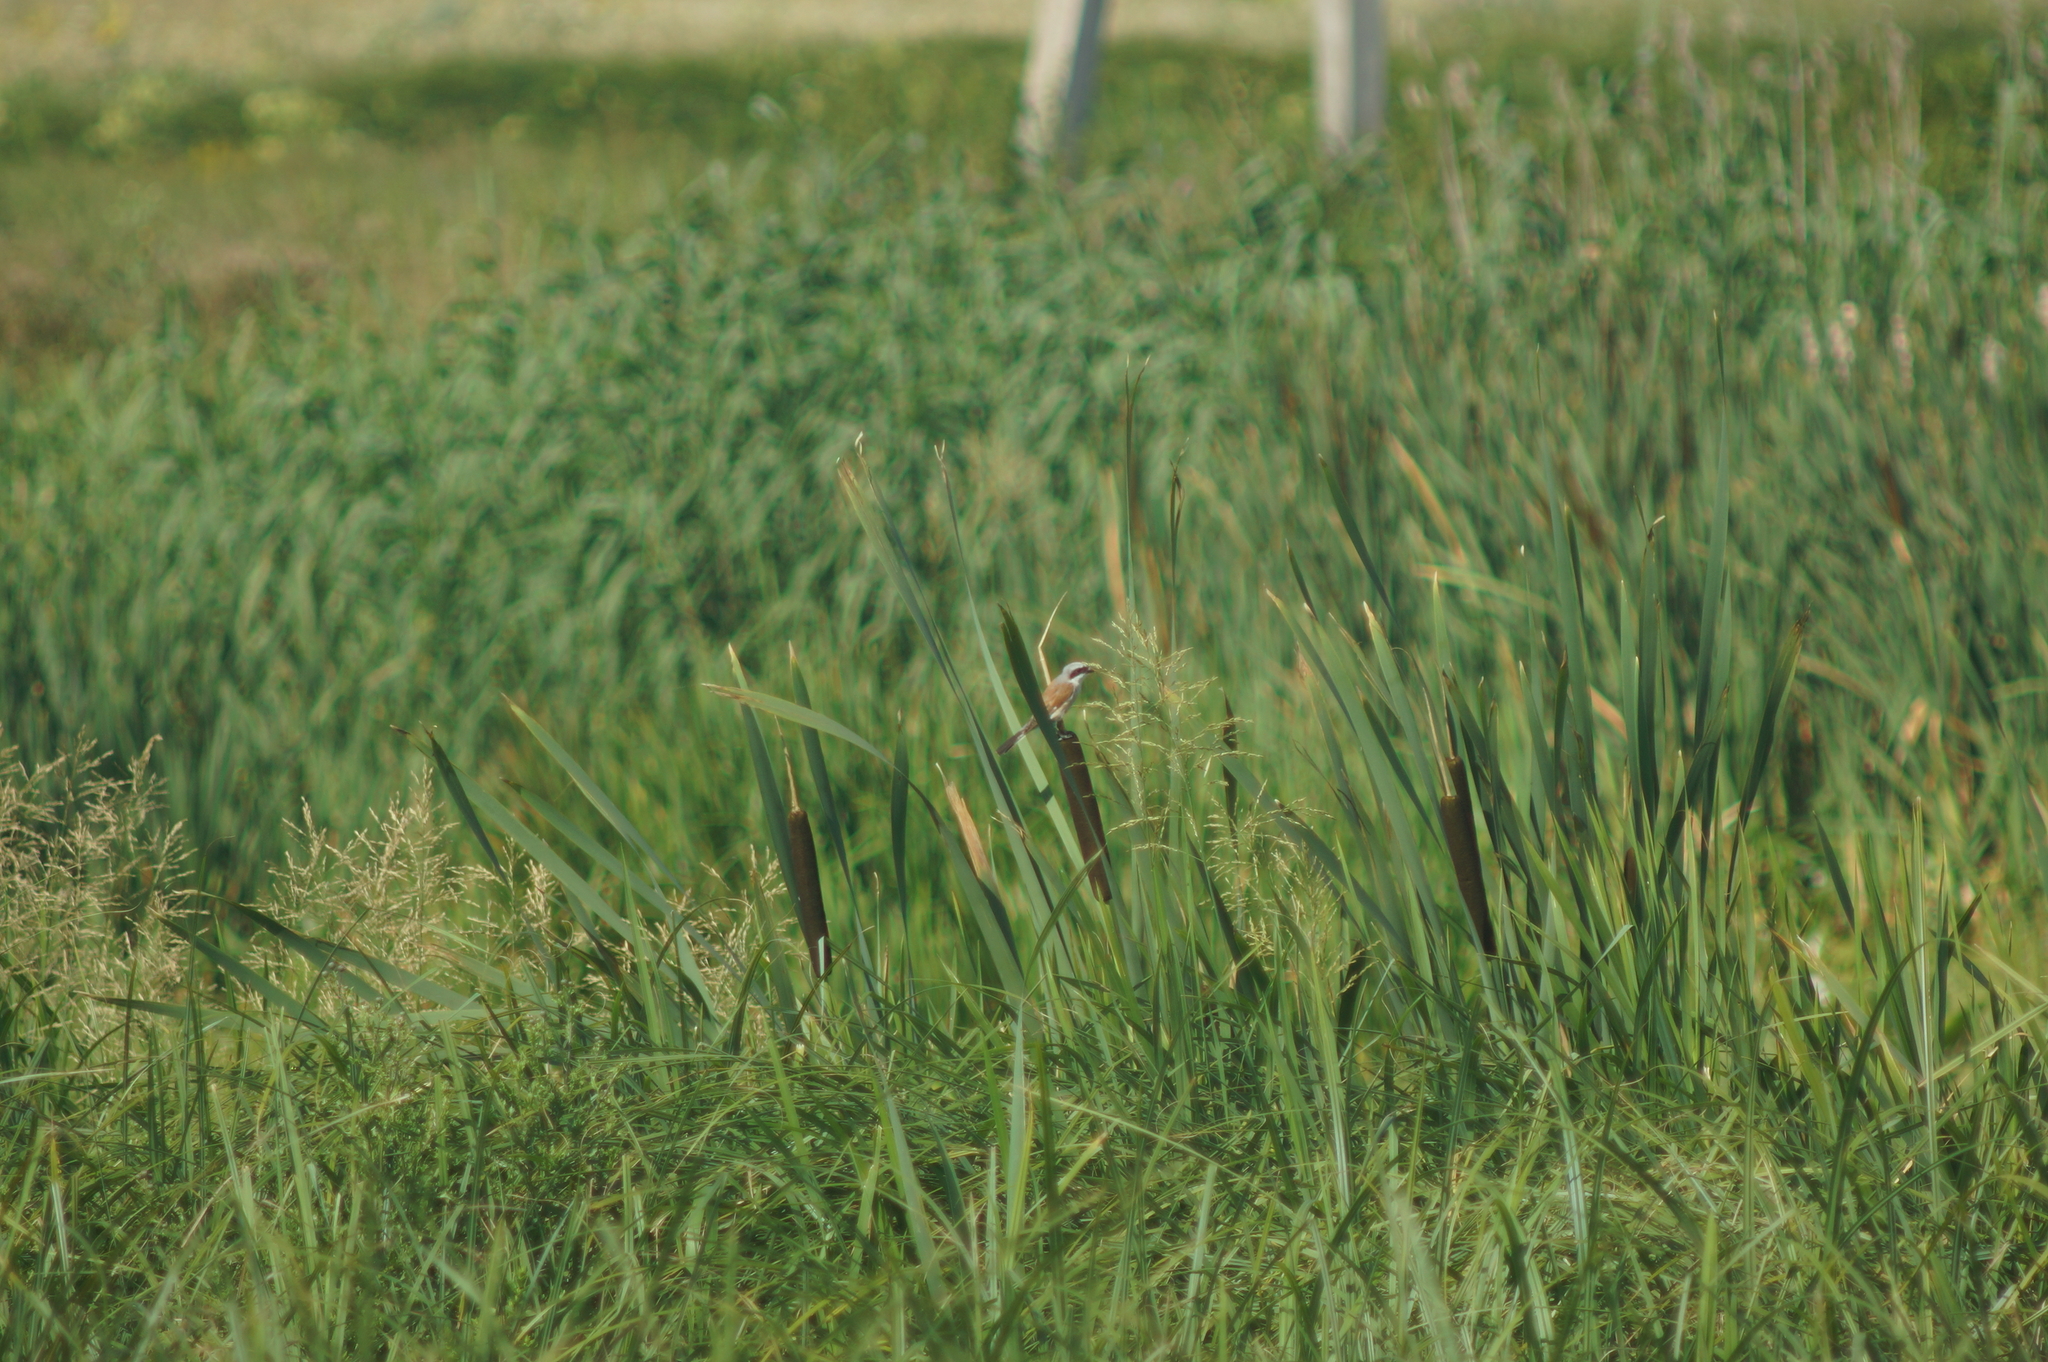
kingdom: Plantae
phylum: Tracheophyta
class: Liliopsida
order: Poales
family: Typhaceae
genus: Typha
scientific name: Typha latifolia
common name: Broadleaf cattail
